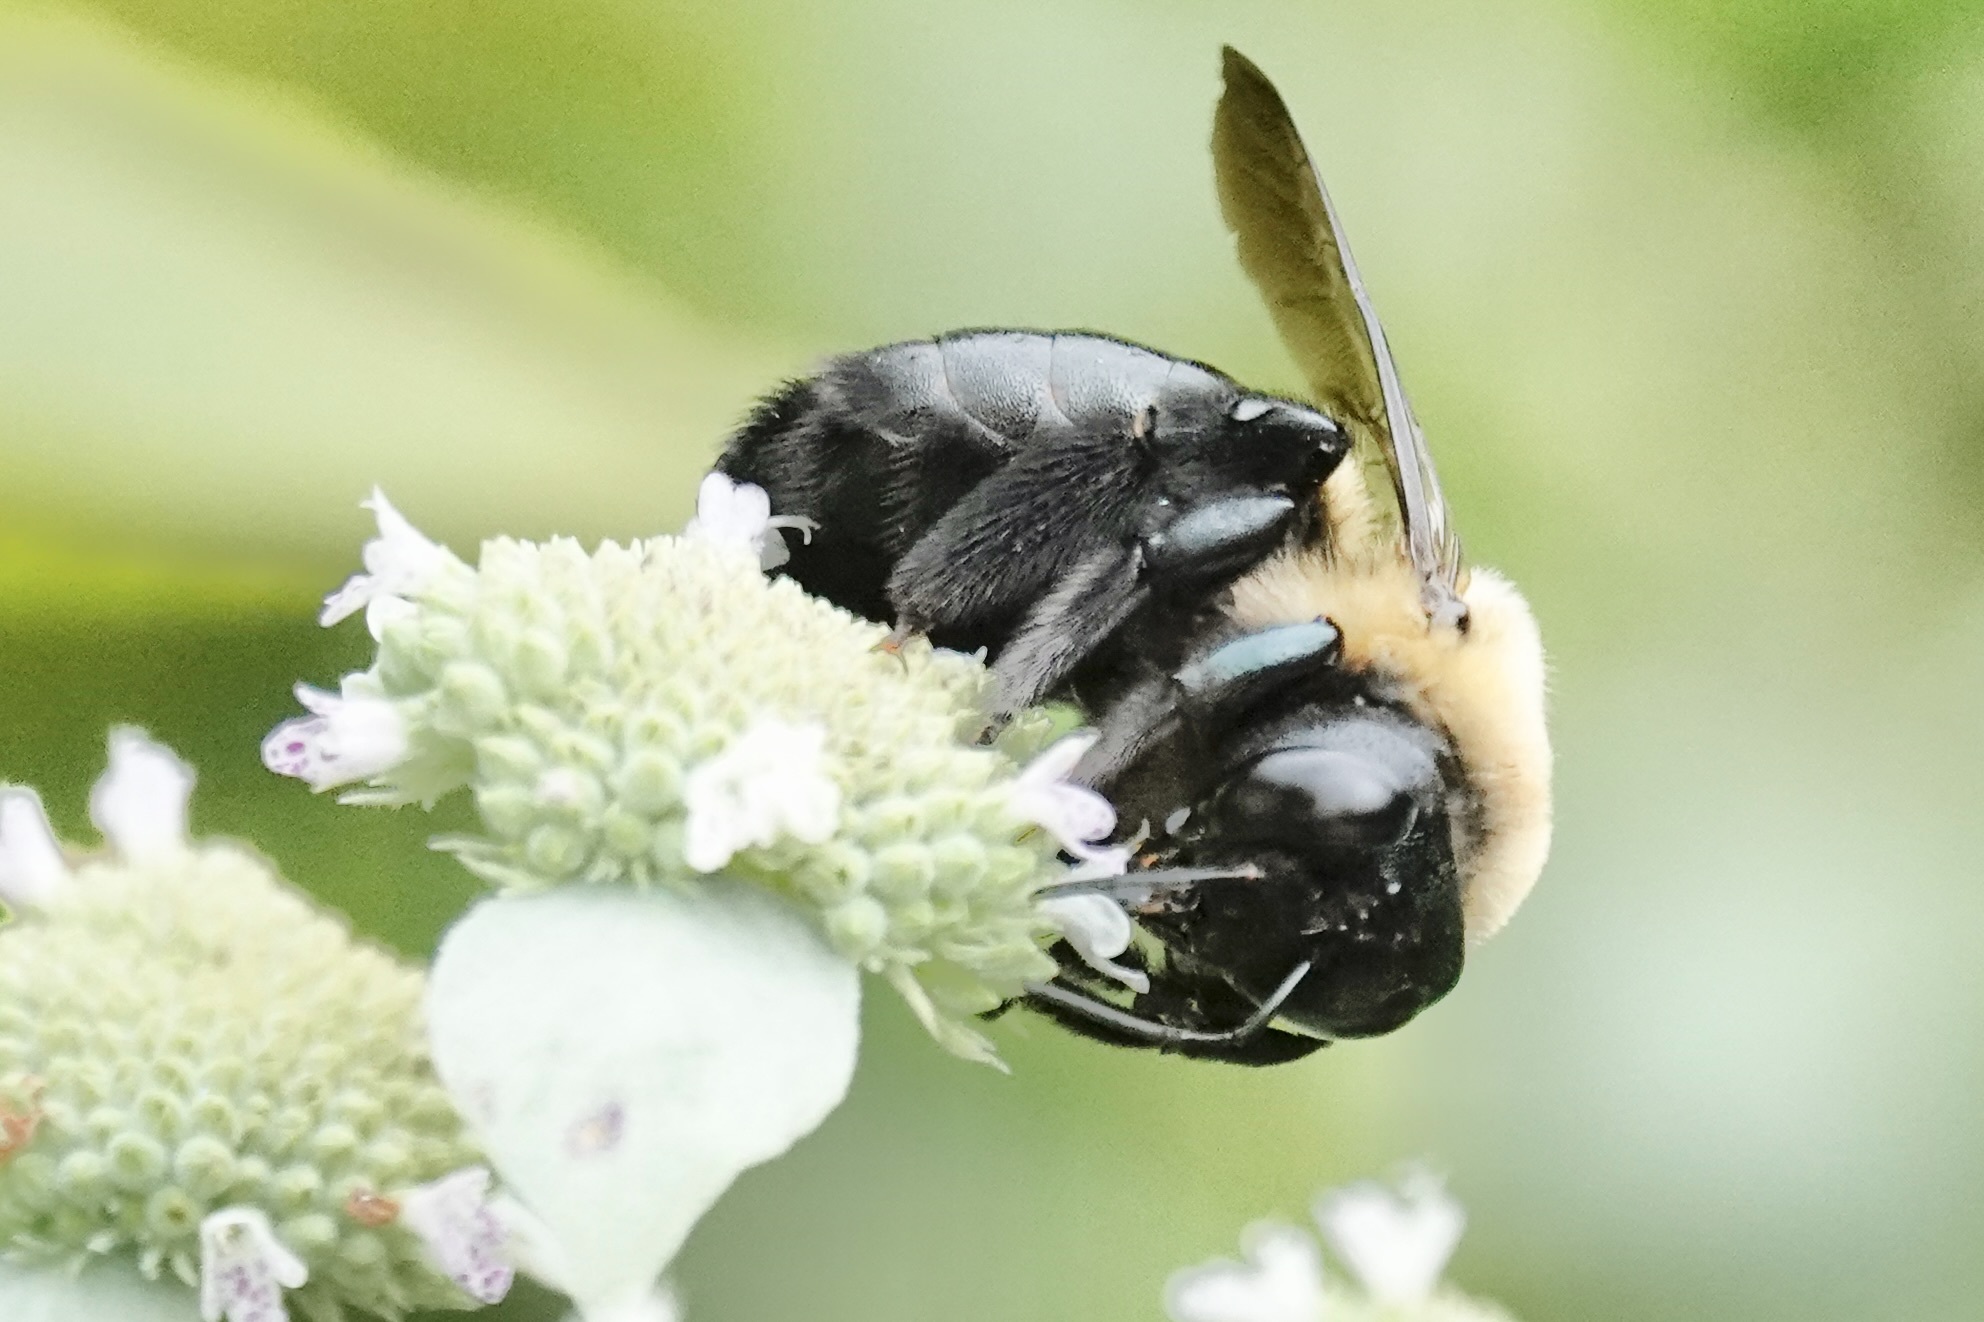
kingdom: Animalia
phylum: Arthropoda
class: Insecta
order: Hymenoptera
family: Apidae
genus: Xylocopa
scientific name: Xylocopa virginica
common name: Carpenter bee
